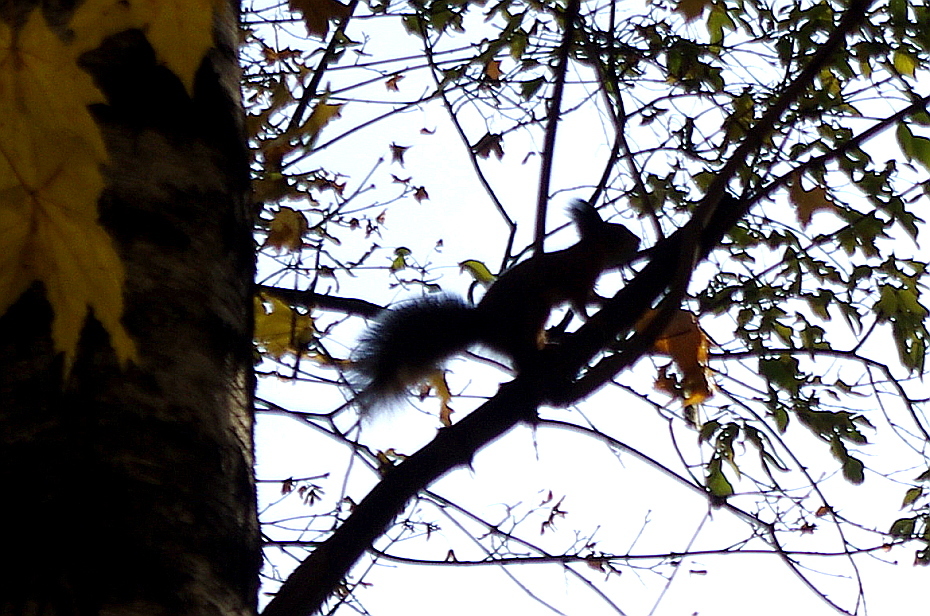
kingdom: Animalia
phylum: Chordata
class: Mammalia
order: Rodentia
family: Sciuridae
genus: Sciurus
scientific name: Sciurus vulgaris
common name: Eurasian red squirrel
